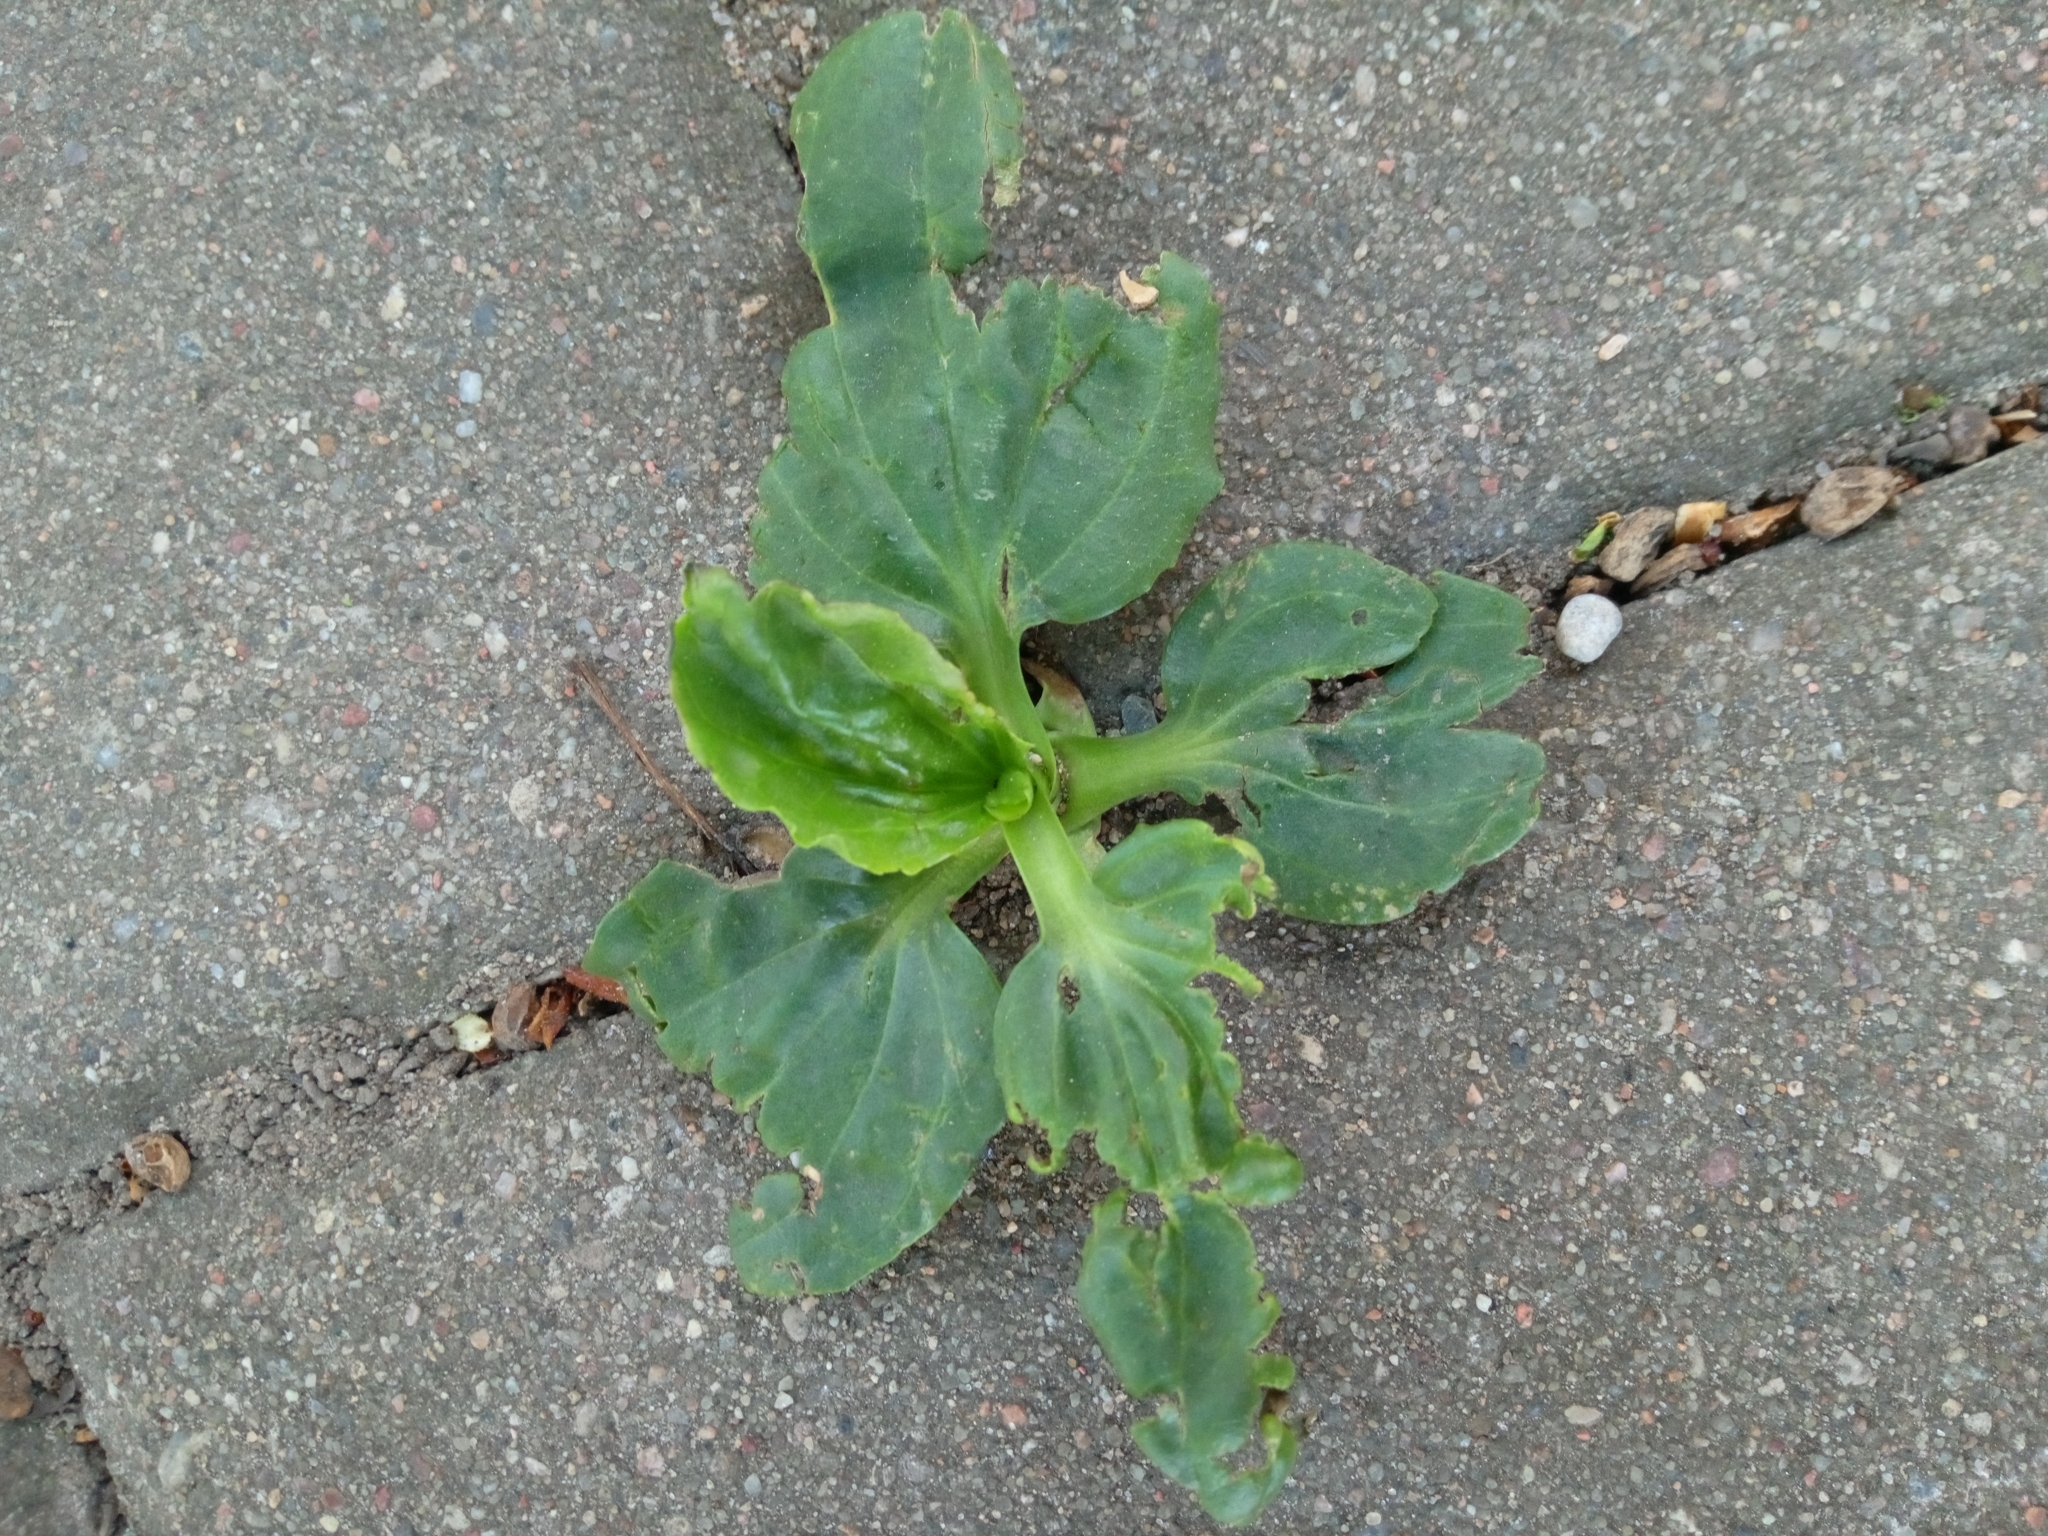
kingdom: Plantae
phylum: Tracheophyta
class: Magnoliopsida
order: Lamiales
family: Plantaginaceae
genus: Plantago
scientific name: Plantago major
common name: Common plantain
